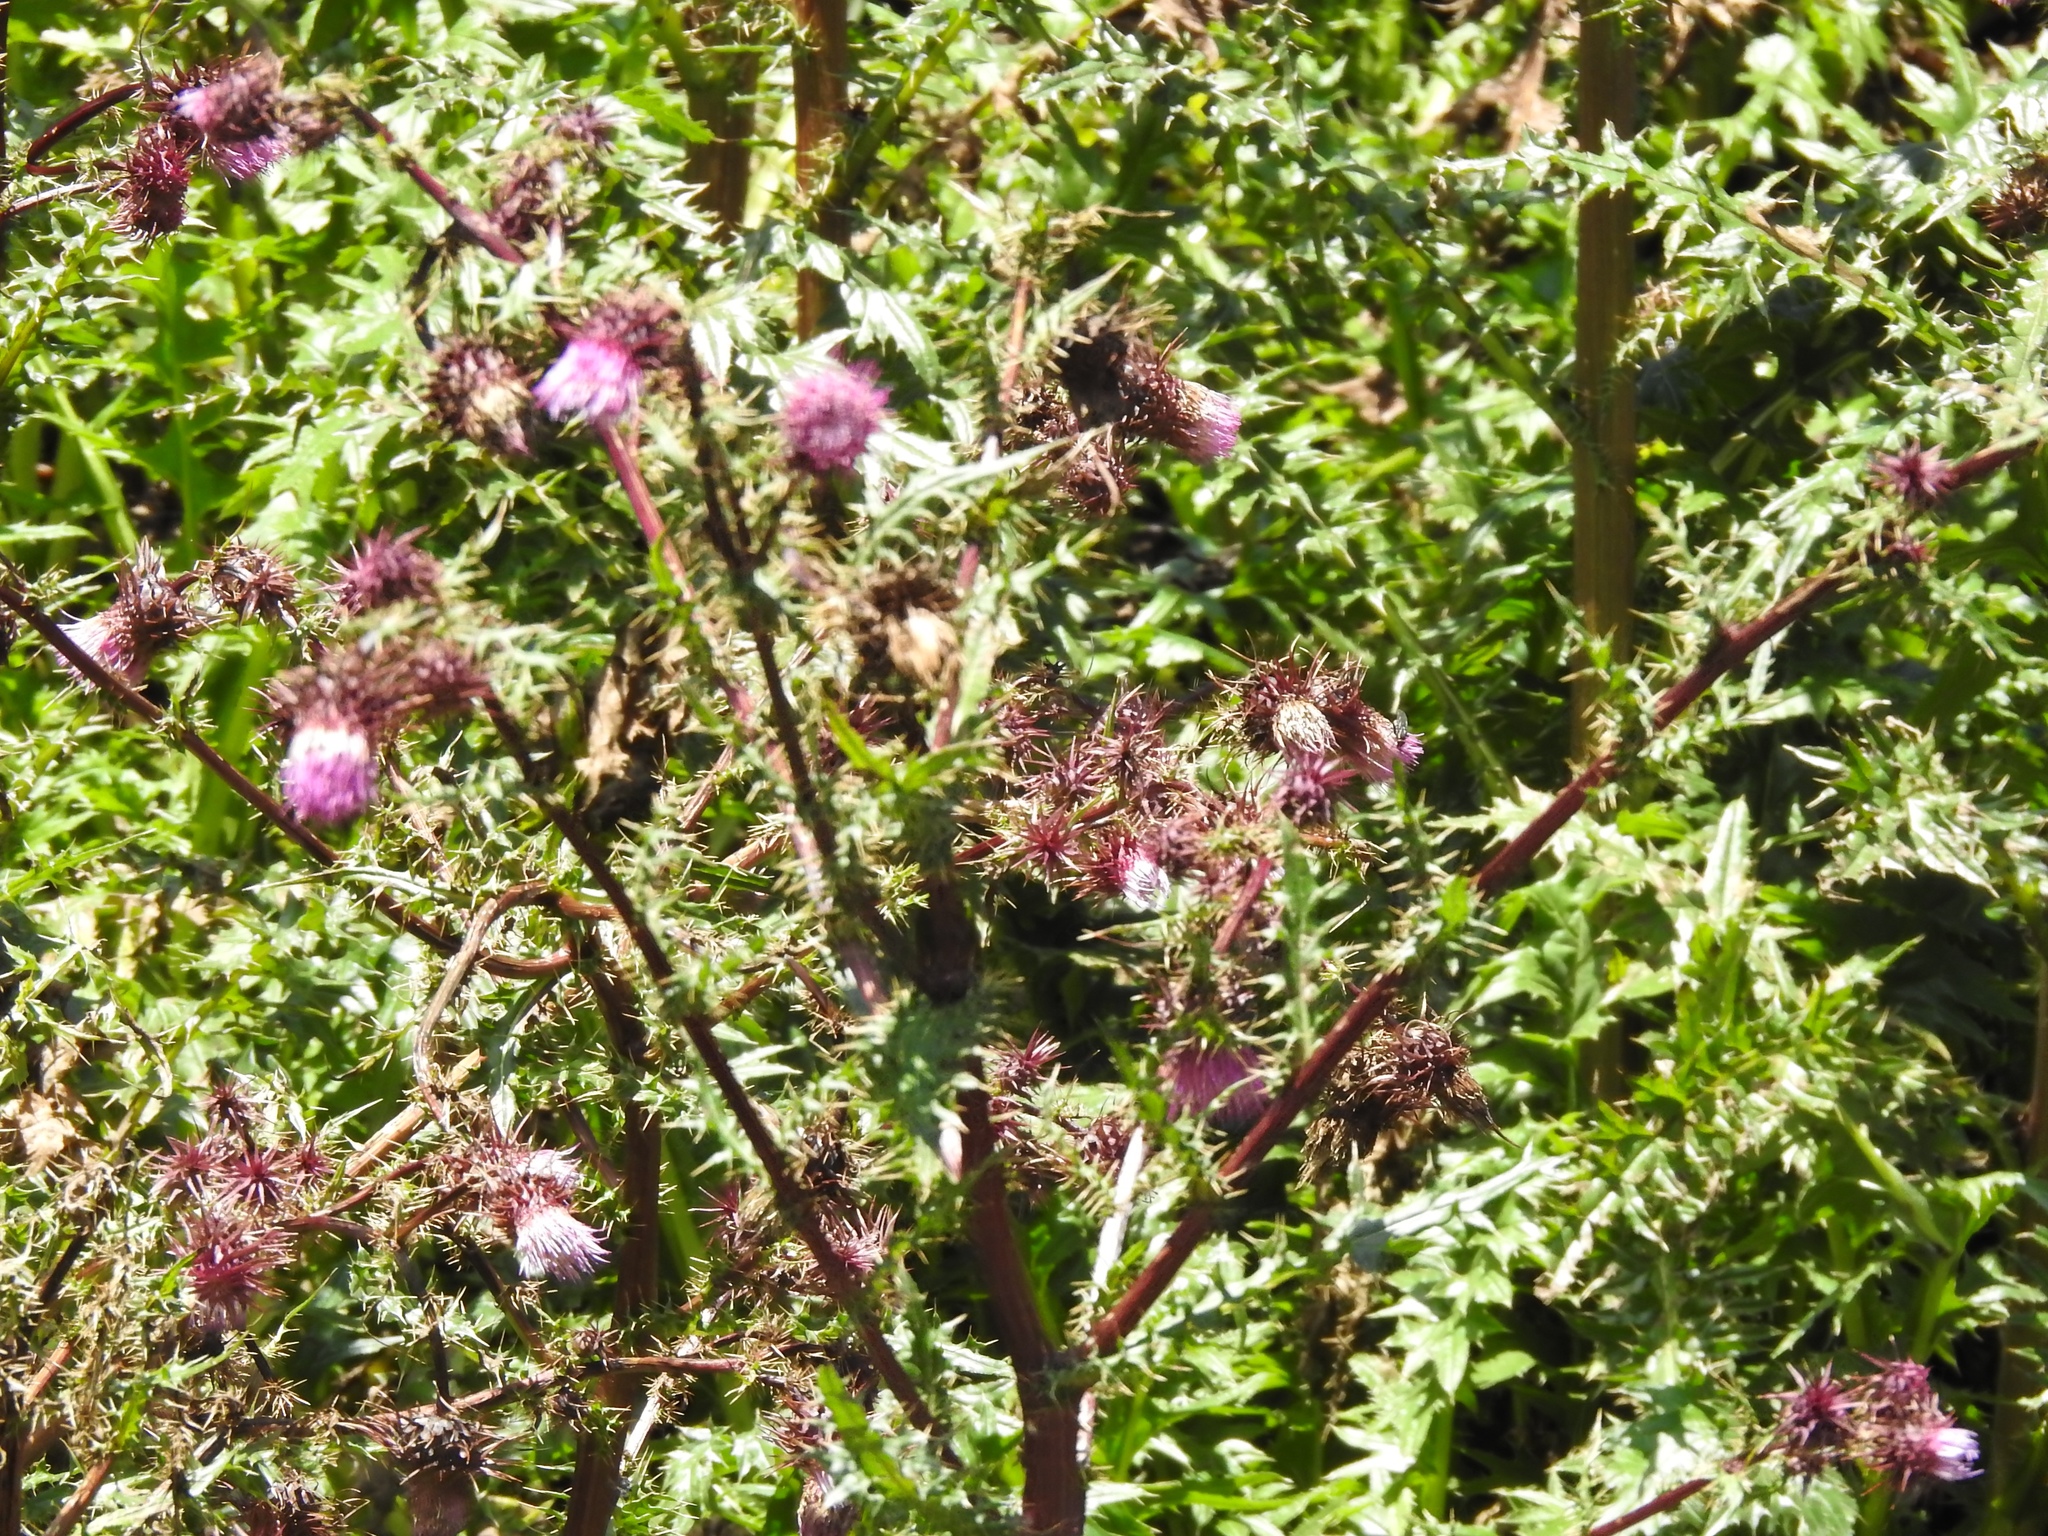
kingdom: Plantae
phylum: Tracheophyta
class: Magnoliopsida
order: Asterales
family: Asteraceae
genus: Cirsium
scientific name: Cirsium vinaceum
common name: Sacramento mountain thistle
